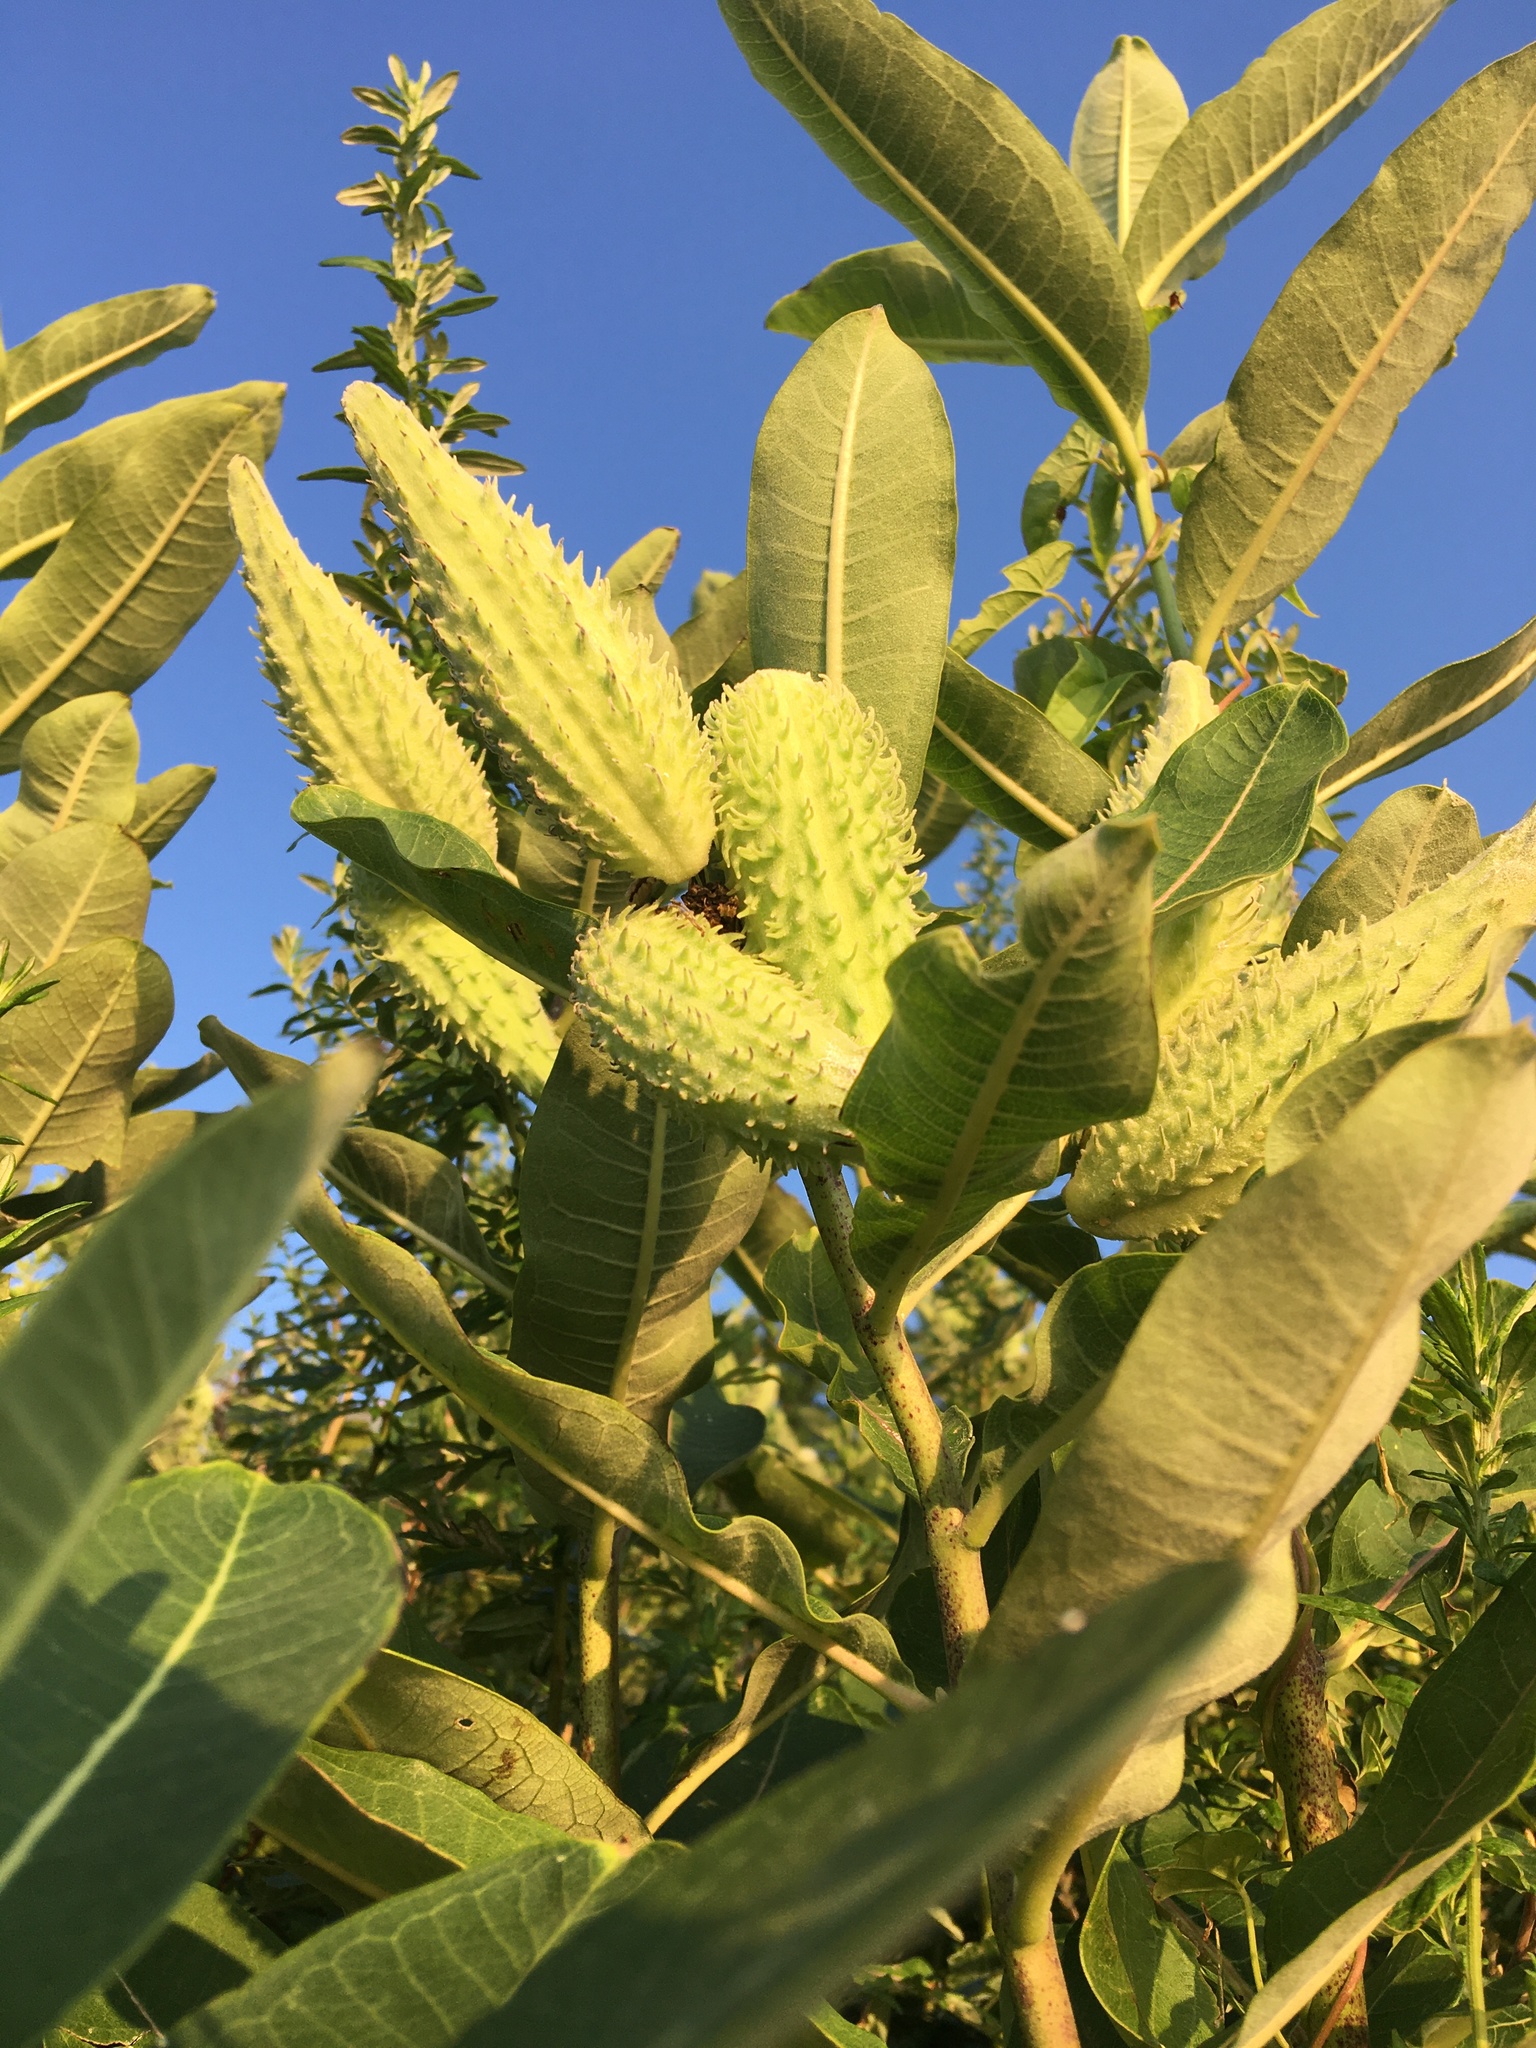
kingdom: Plantae
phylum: Tracheophyta
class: Magnoliopsida
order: Gentianales
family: Apocynaceae
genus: Asclepias
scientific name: Asclepias syriaca
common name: Common milkweed
